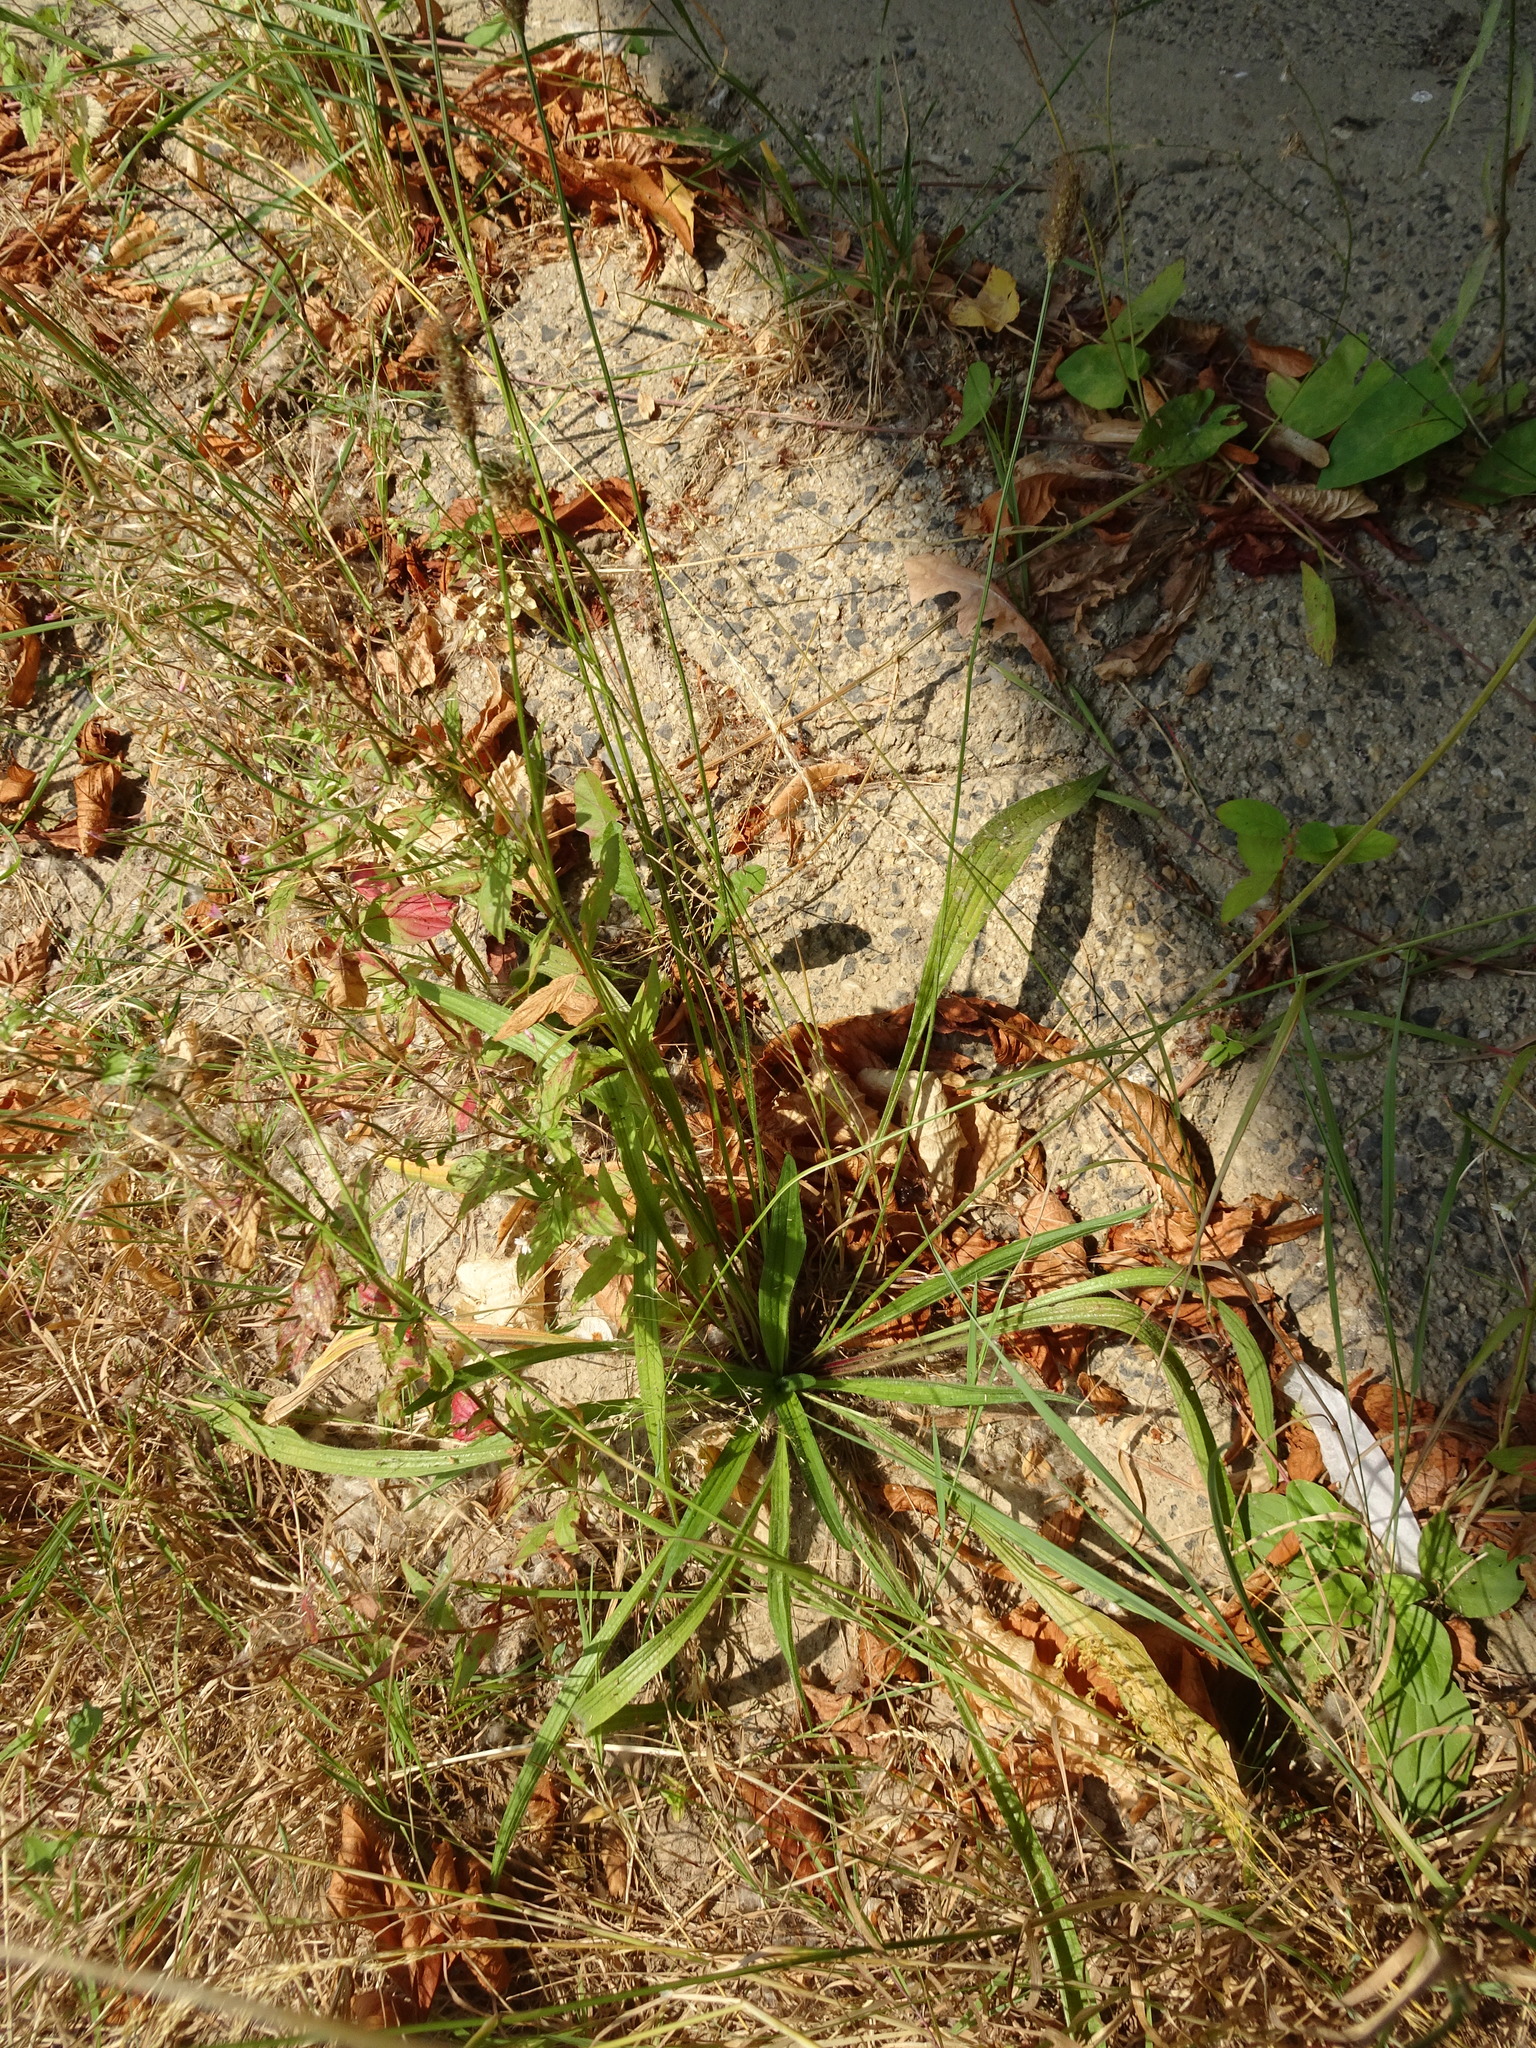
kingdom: Plantae
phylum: Tracheophyta
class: Magnoliopsida
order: Lamiales
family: Plantaginaceae
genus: Plantago
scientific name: Plantago lanceolata
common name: Ribwort plantain
